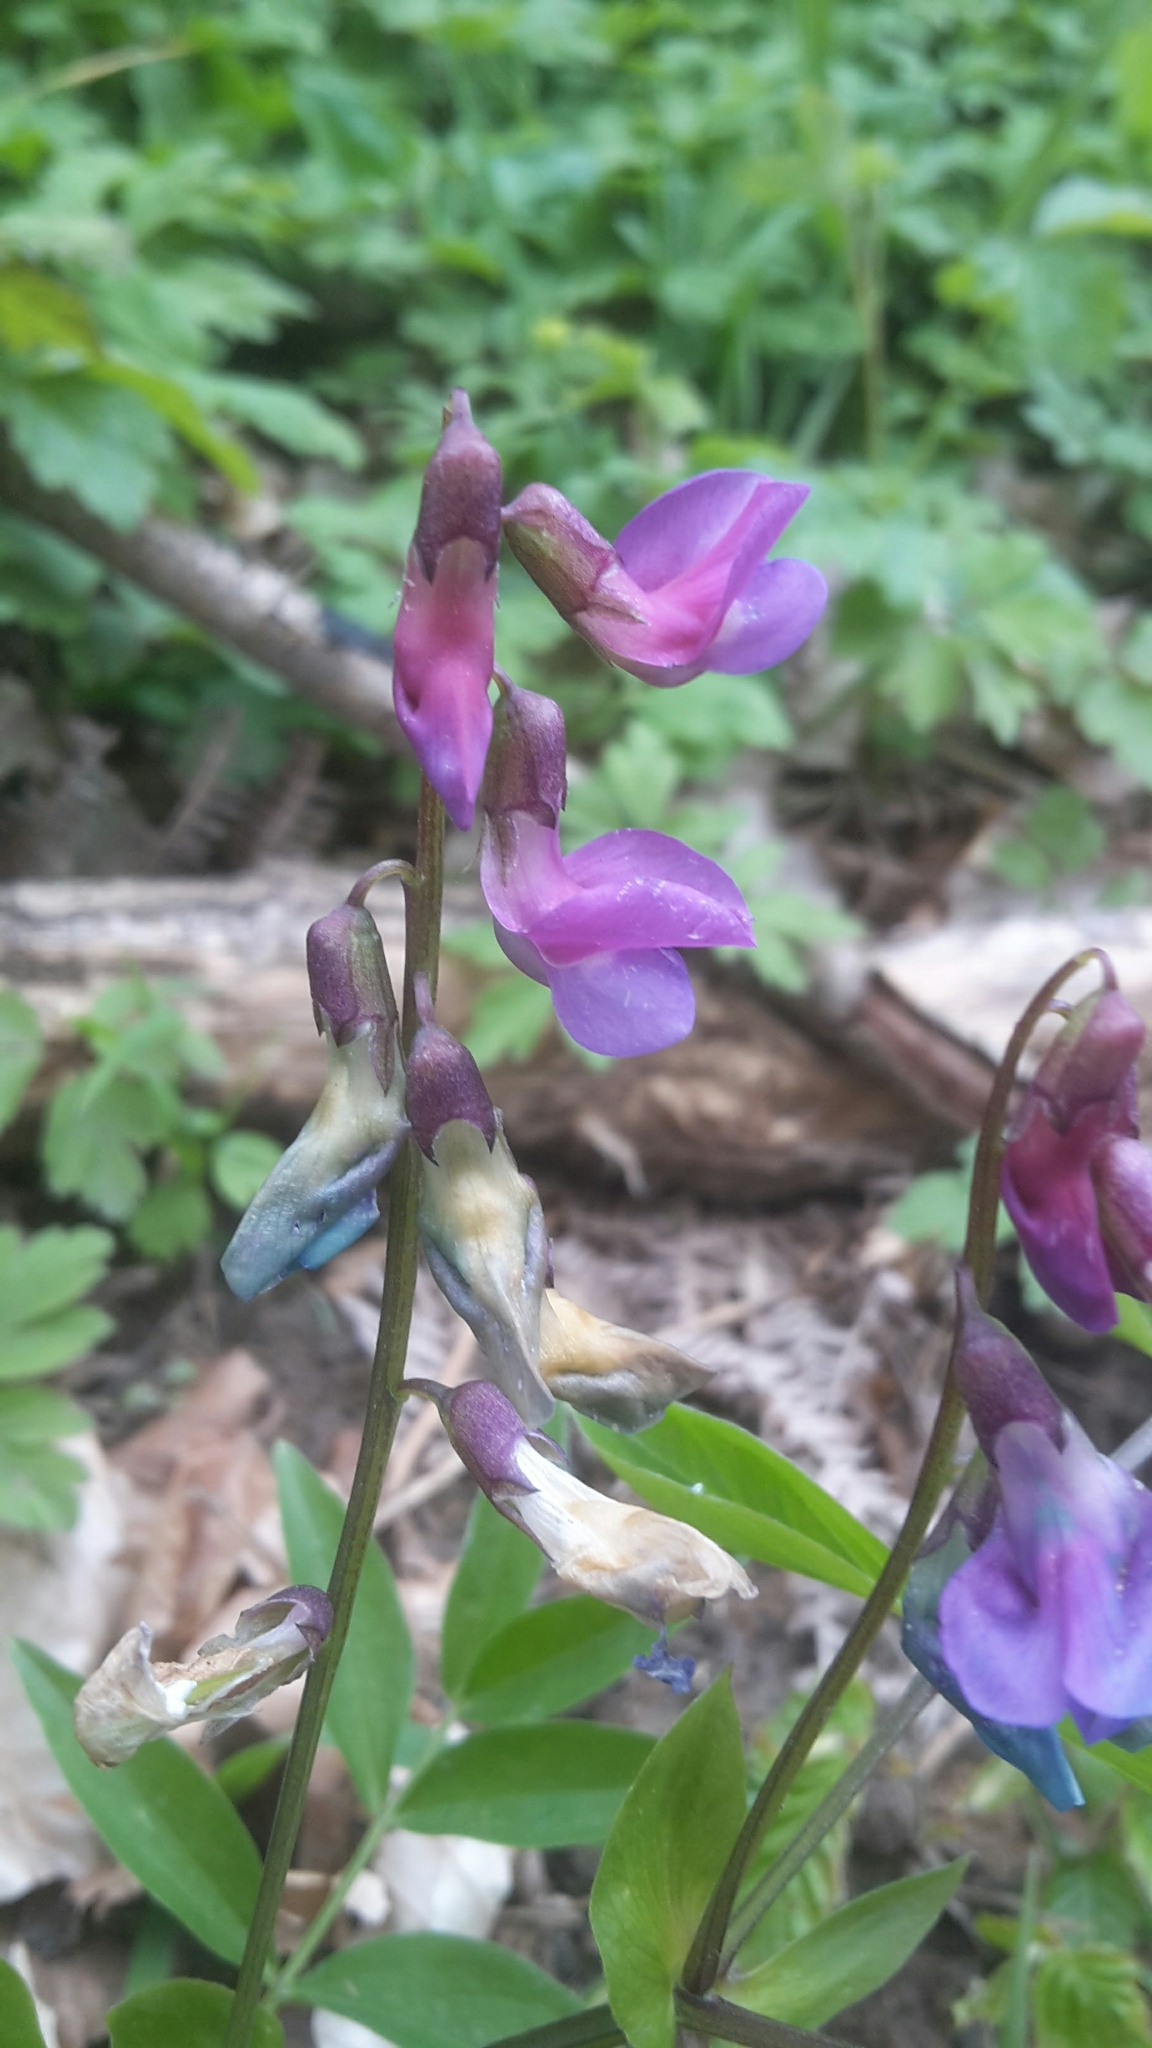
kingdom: Plantae
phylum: Tracheophyta
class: Magnoliopsida
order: Fabales
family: Fabaceae
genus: Lathyrus
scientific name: Lathyrus vernus
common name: Spring pea
